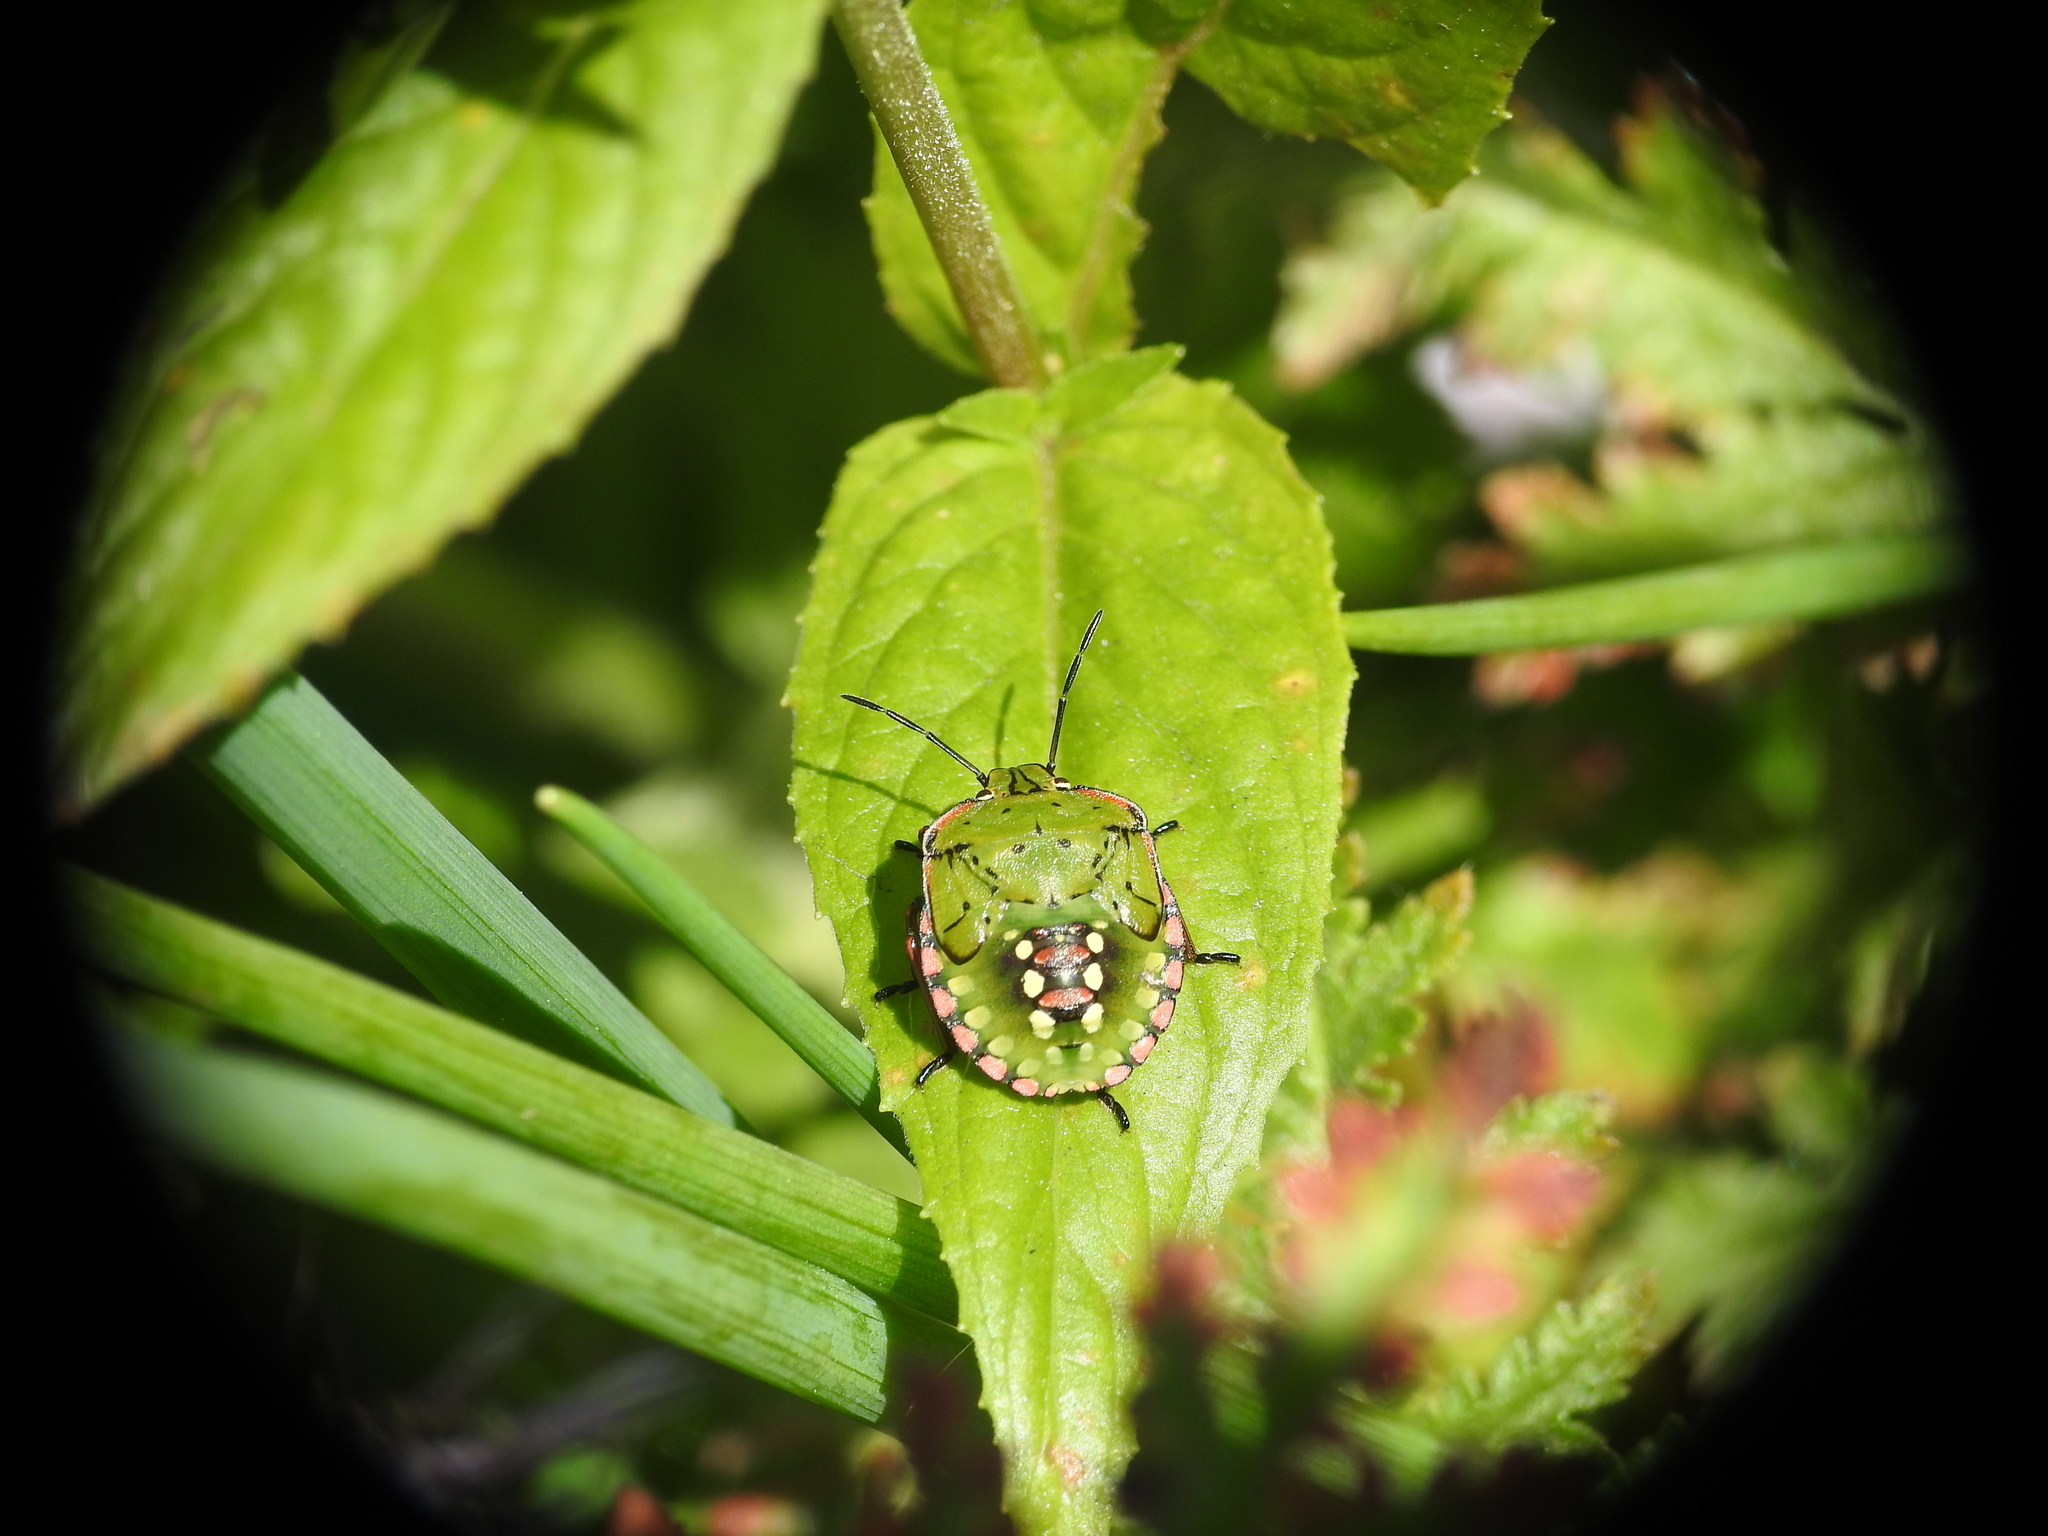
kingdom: Animalia
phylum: Arthropoda
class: Insecta
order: Hemiptera
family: Pentatomidae
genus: Nezara
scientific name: Nezara viridula
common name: Southern green stink bug
